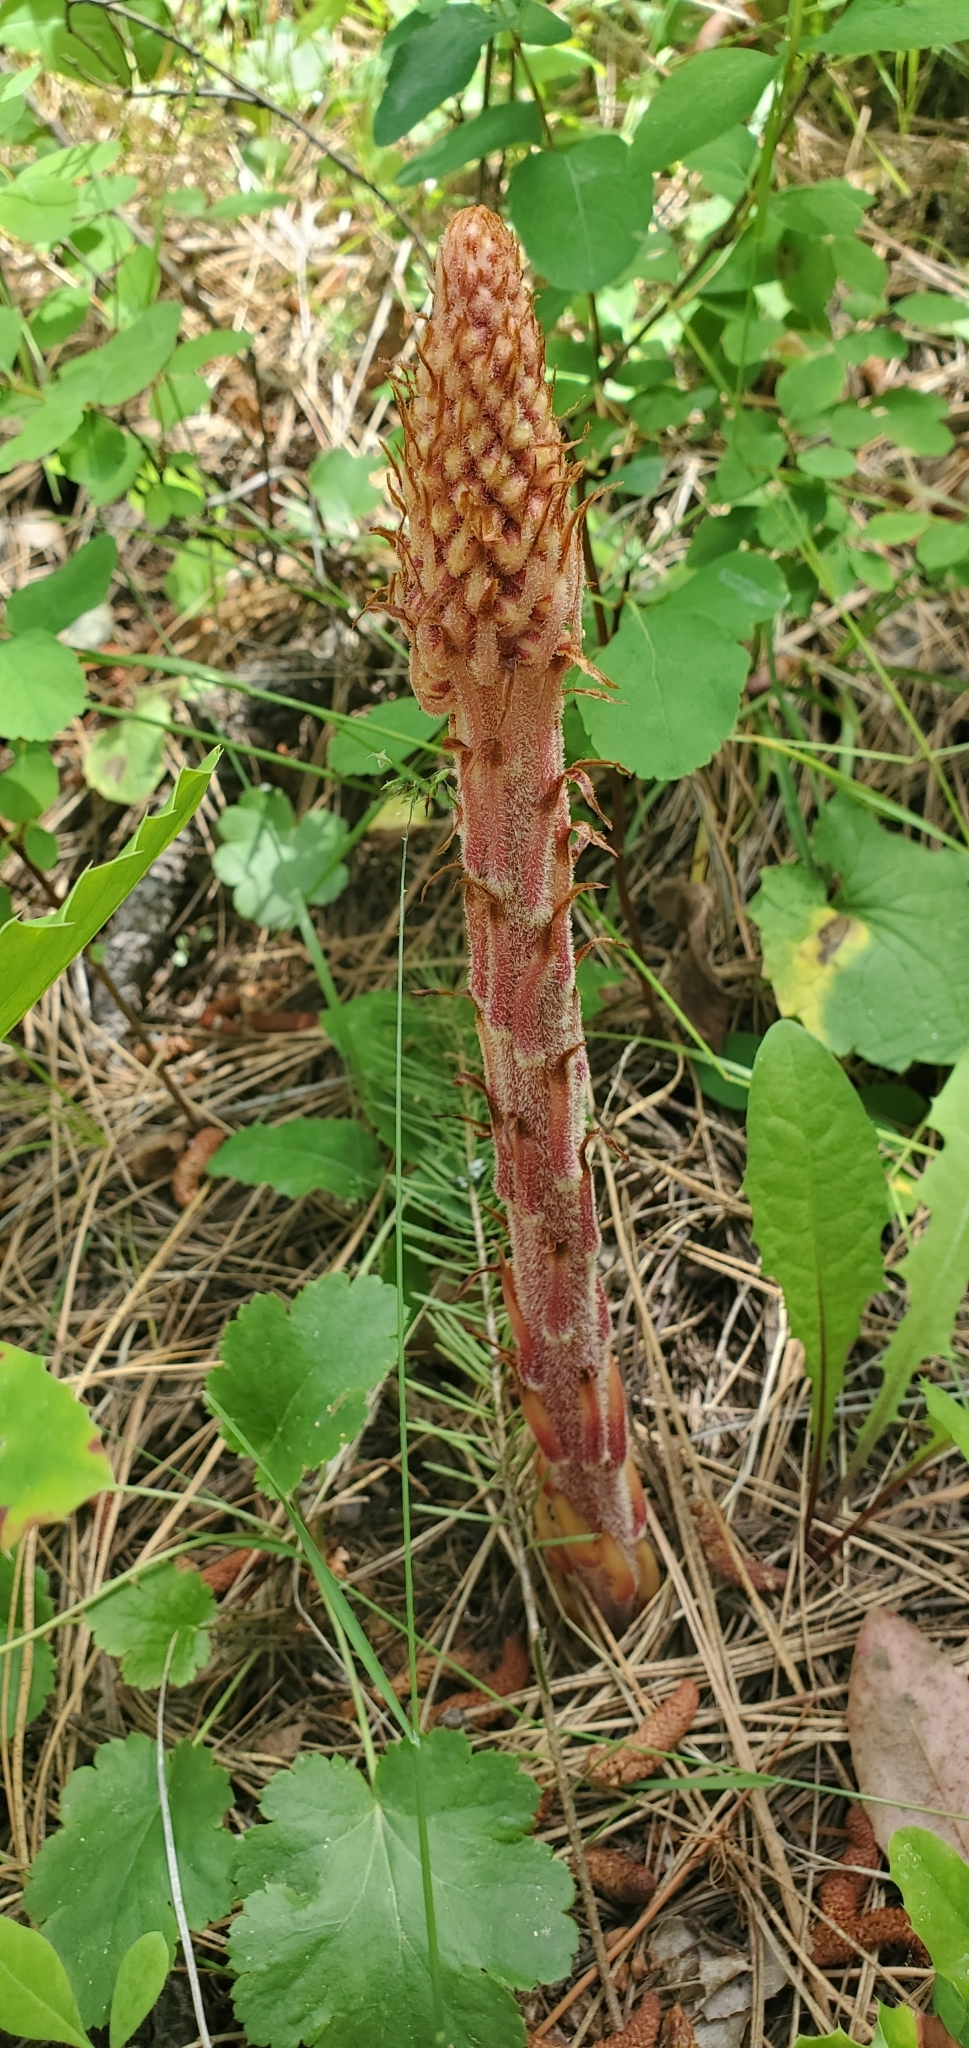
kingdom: Plantae
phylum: Tracheophyta
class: Magnoliopsida
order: Ericales
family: Ericaceae
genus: Pterospora
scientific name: Pterospora andromedea
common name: Giant bird's-nest
